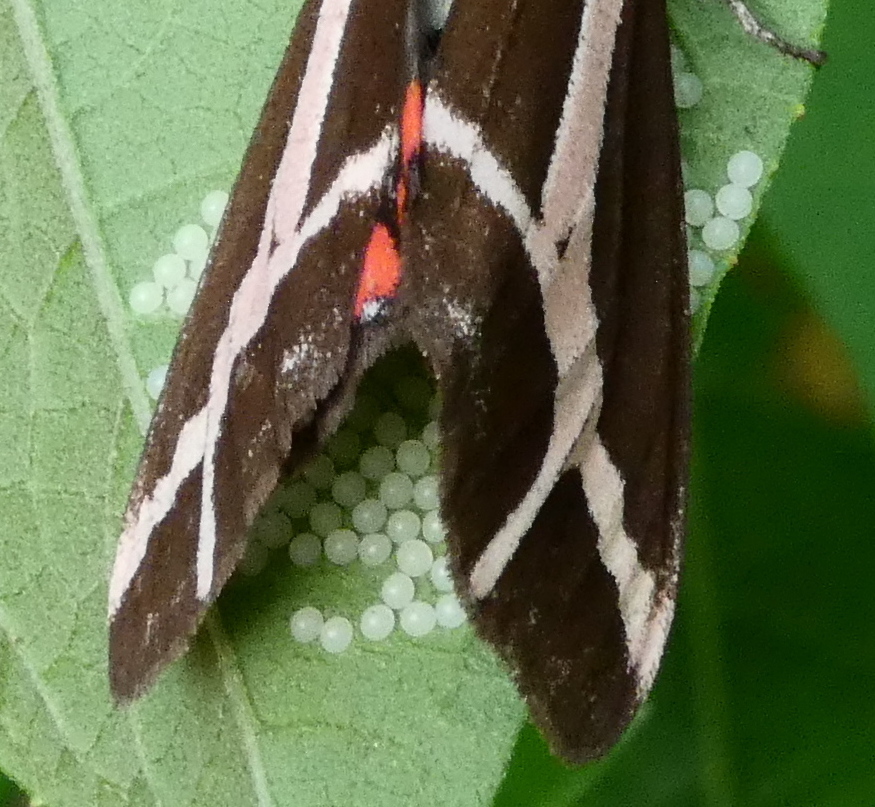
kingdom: Animalia
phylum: Arthropoda
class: Insecta
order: Lepidoptera
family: Erebidae
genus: Dysschema
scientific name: Dysschema sacrifica
